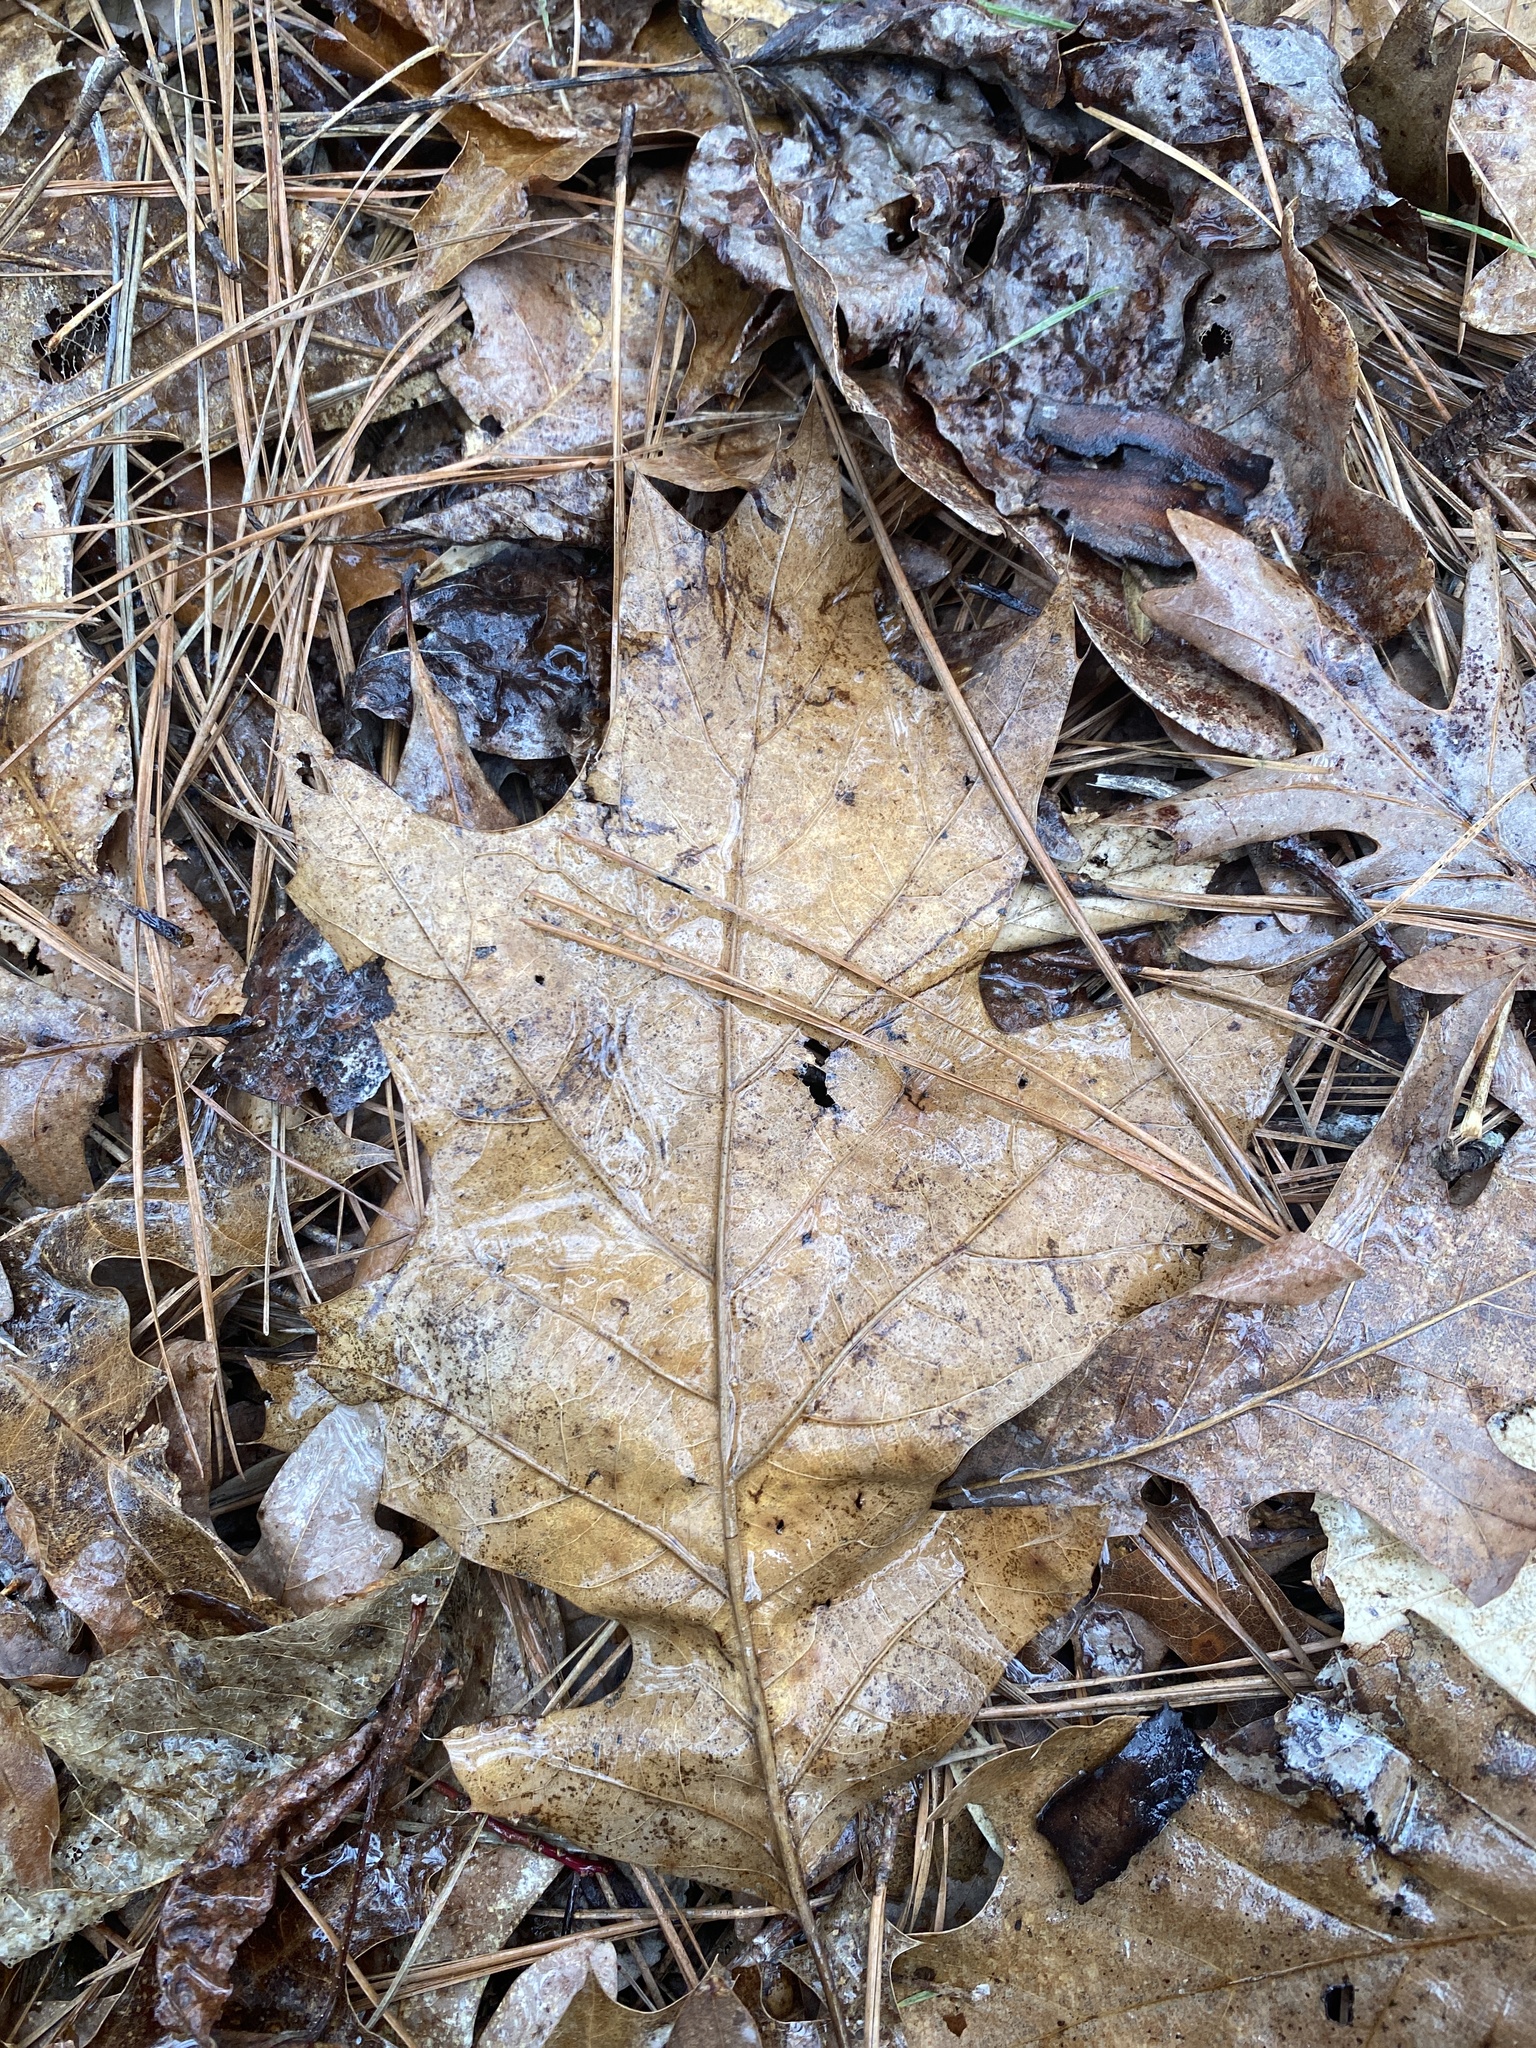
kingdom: Plantae
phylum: Tracheophyta
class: Magnoliopsida
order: Fagales
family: Fagaceae
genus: Quercus
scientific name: Quercus velutina
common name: Black oak
